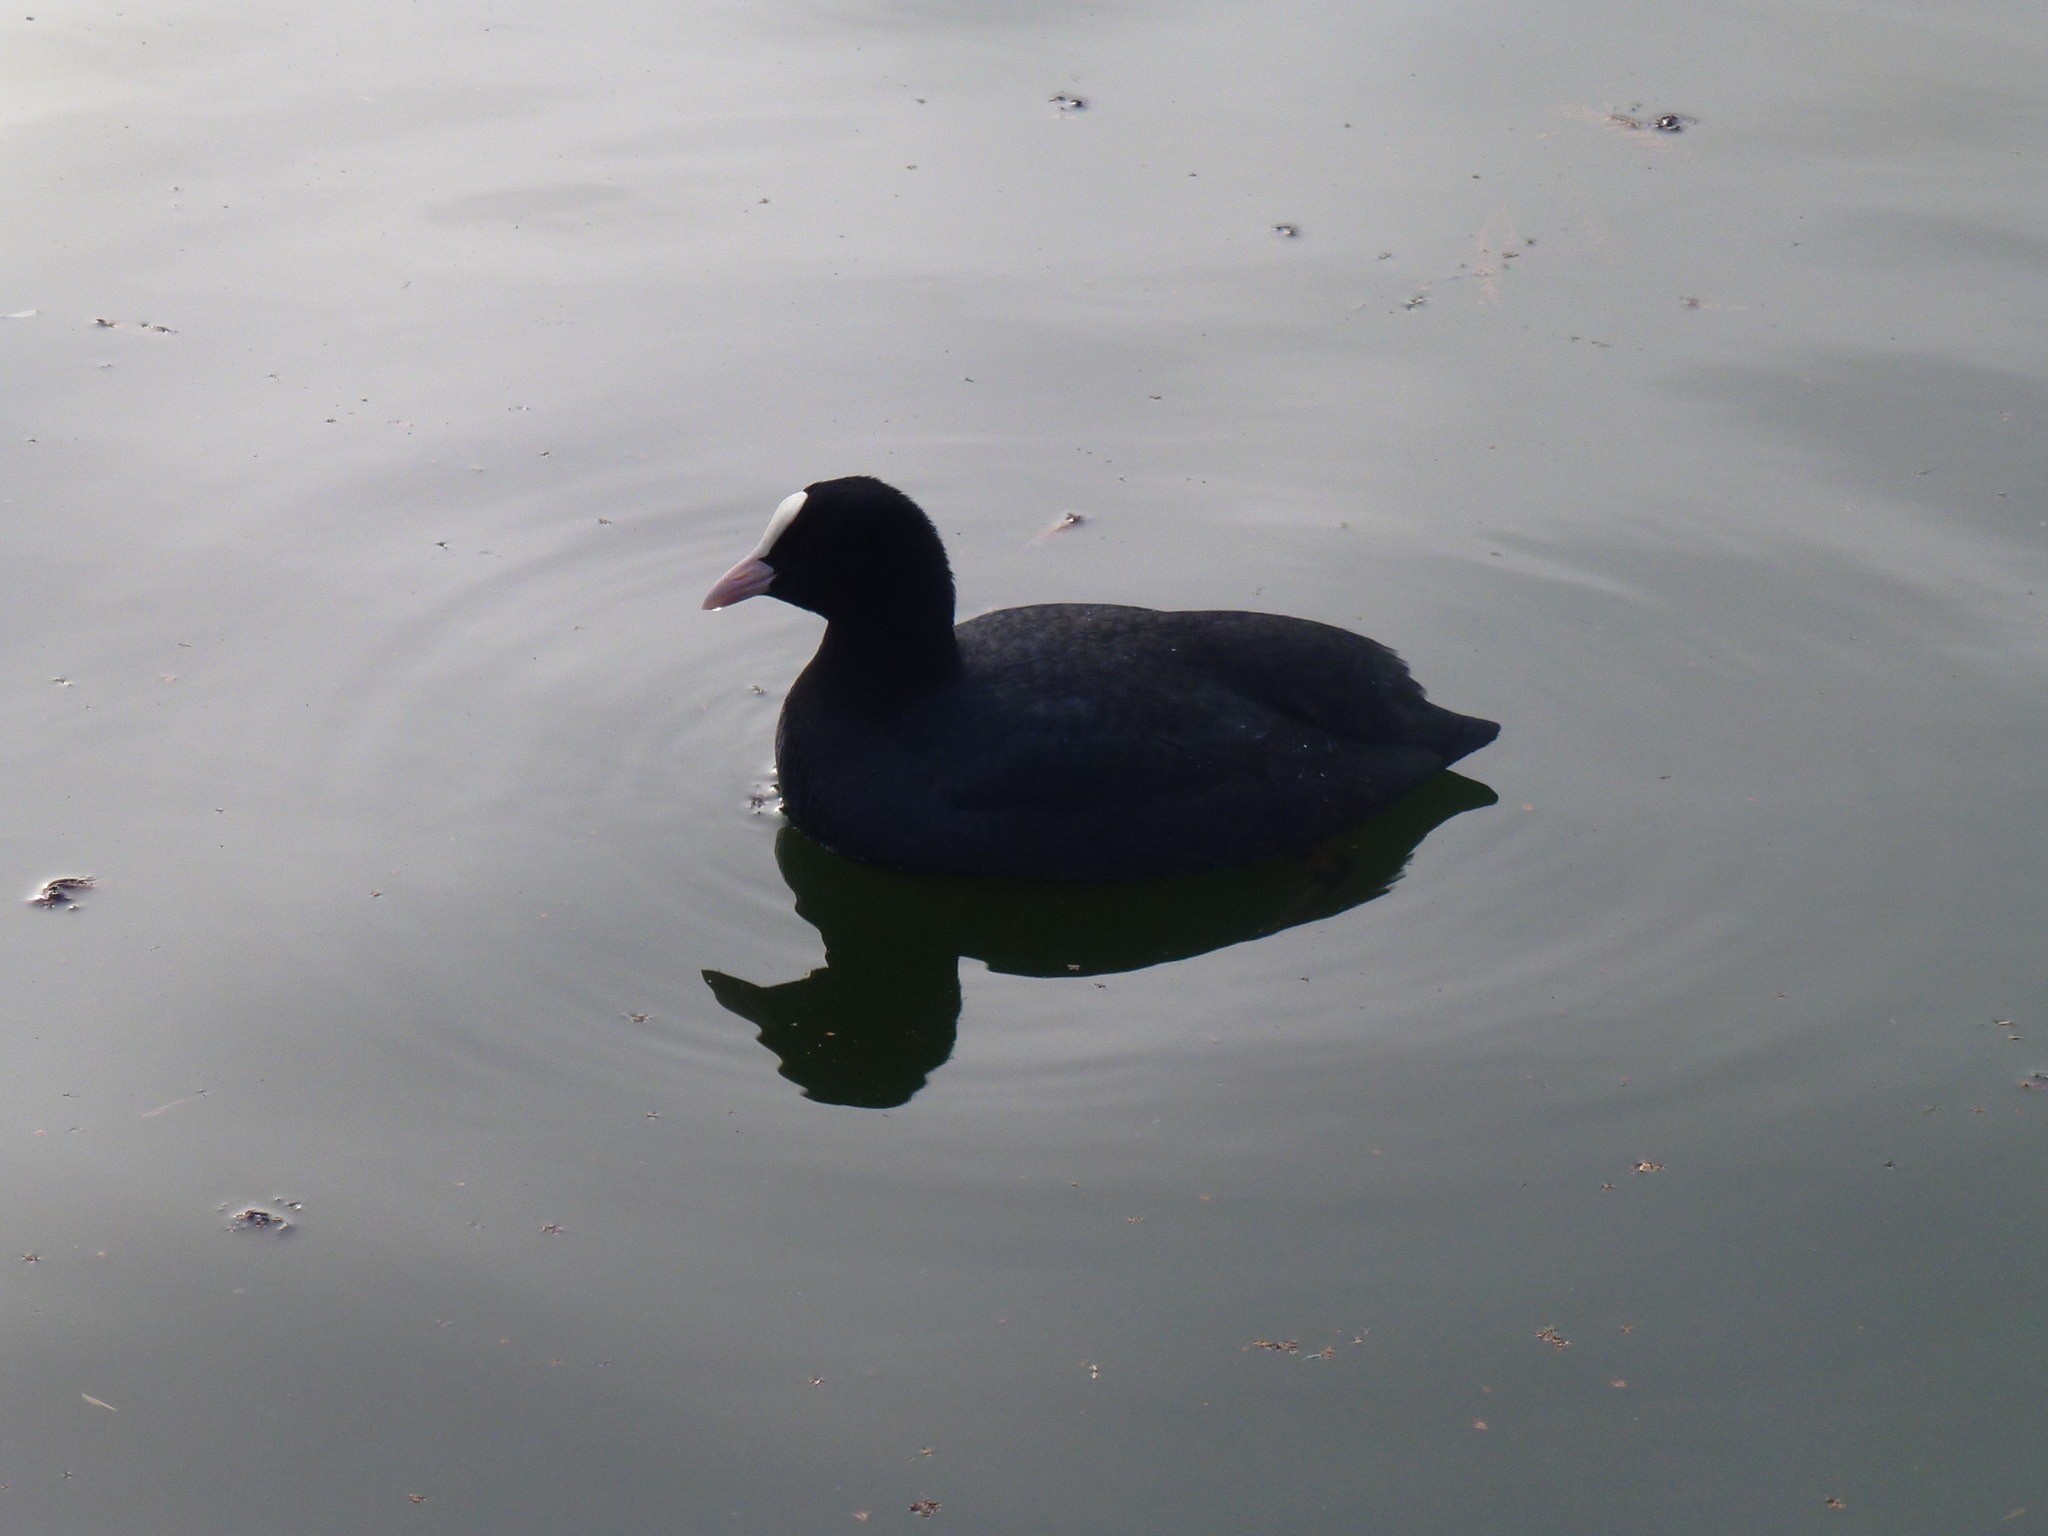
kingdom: Animalia
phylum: Chordata
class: Aves
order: Gruiformes
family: Rallidae
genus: Fulica
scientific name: Fulica atra
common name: Eurasian coot
